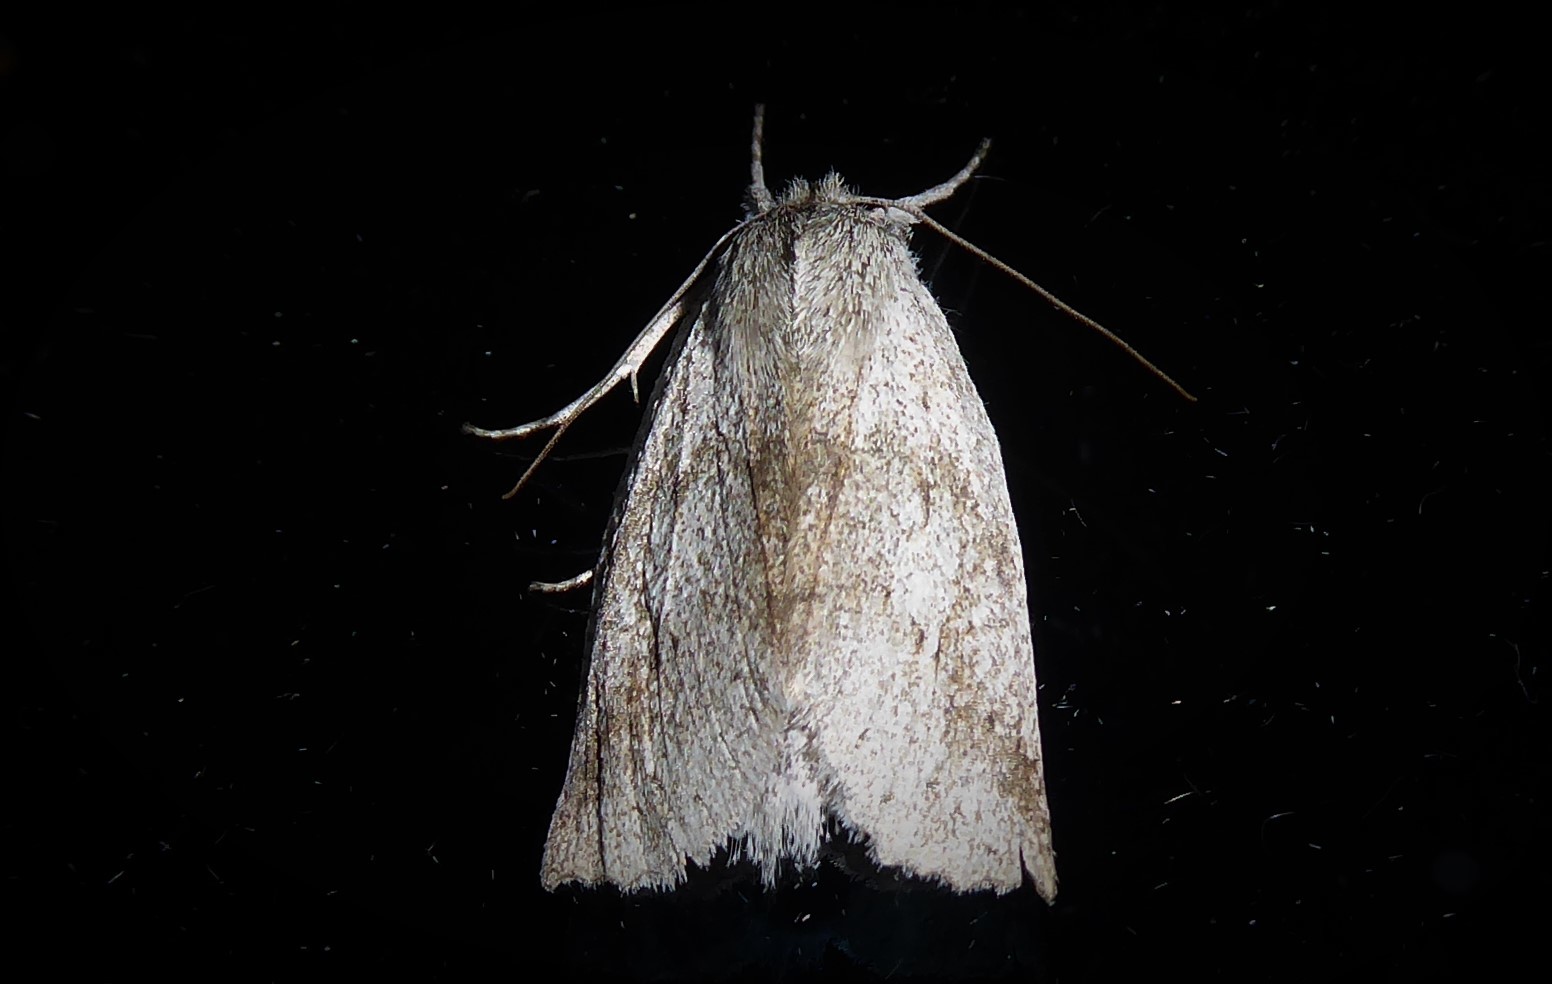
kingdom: Animalia
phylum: Arthropoda
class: Insecta
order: Lepidoptera
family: Geometridae
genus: Declana
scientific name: Declana leptomera
